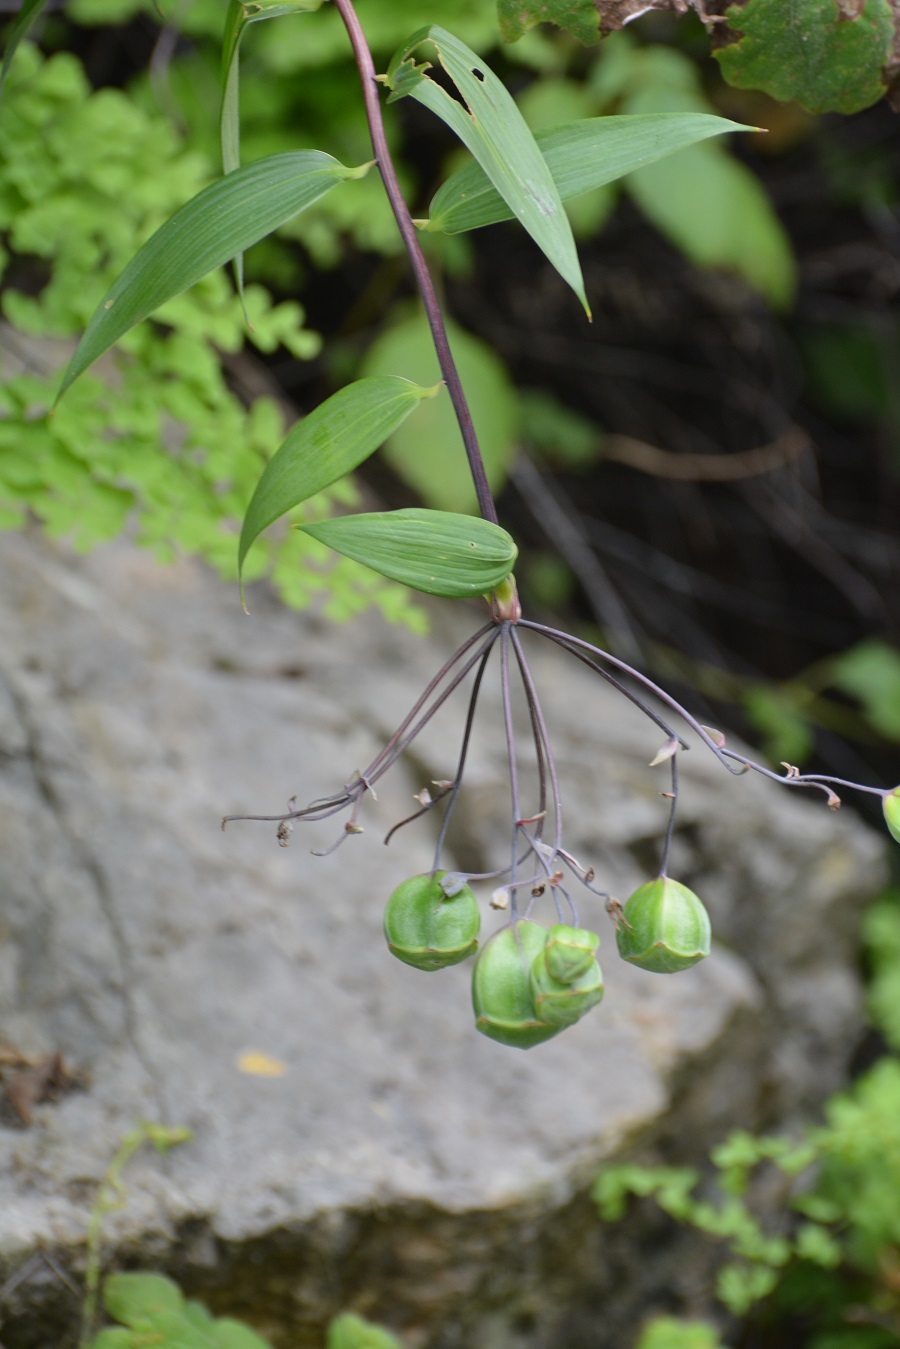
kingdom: Plantae
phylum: Tracheophyta
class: Liliopsida
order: Liliales
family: Alstroemeriaceae
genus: Bomarea
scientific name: Bomarea edulis
